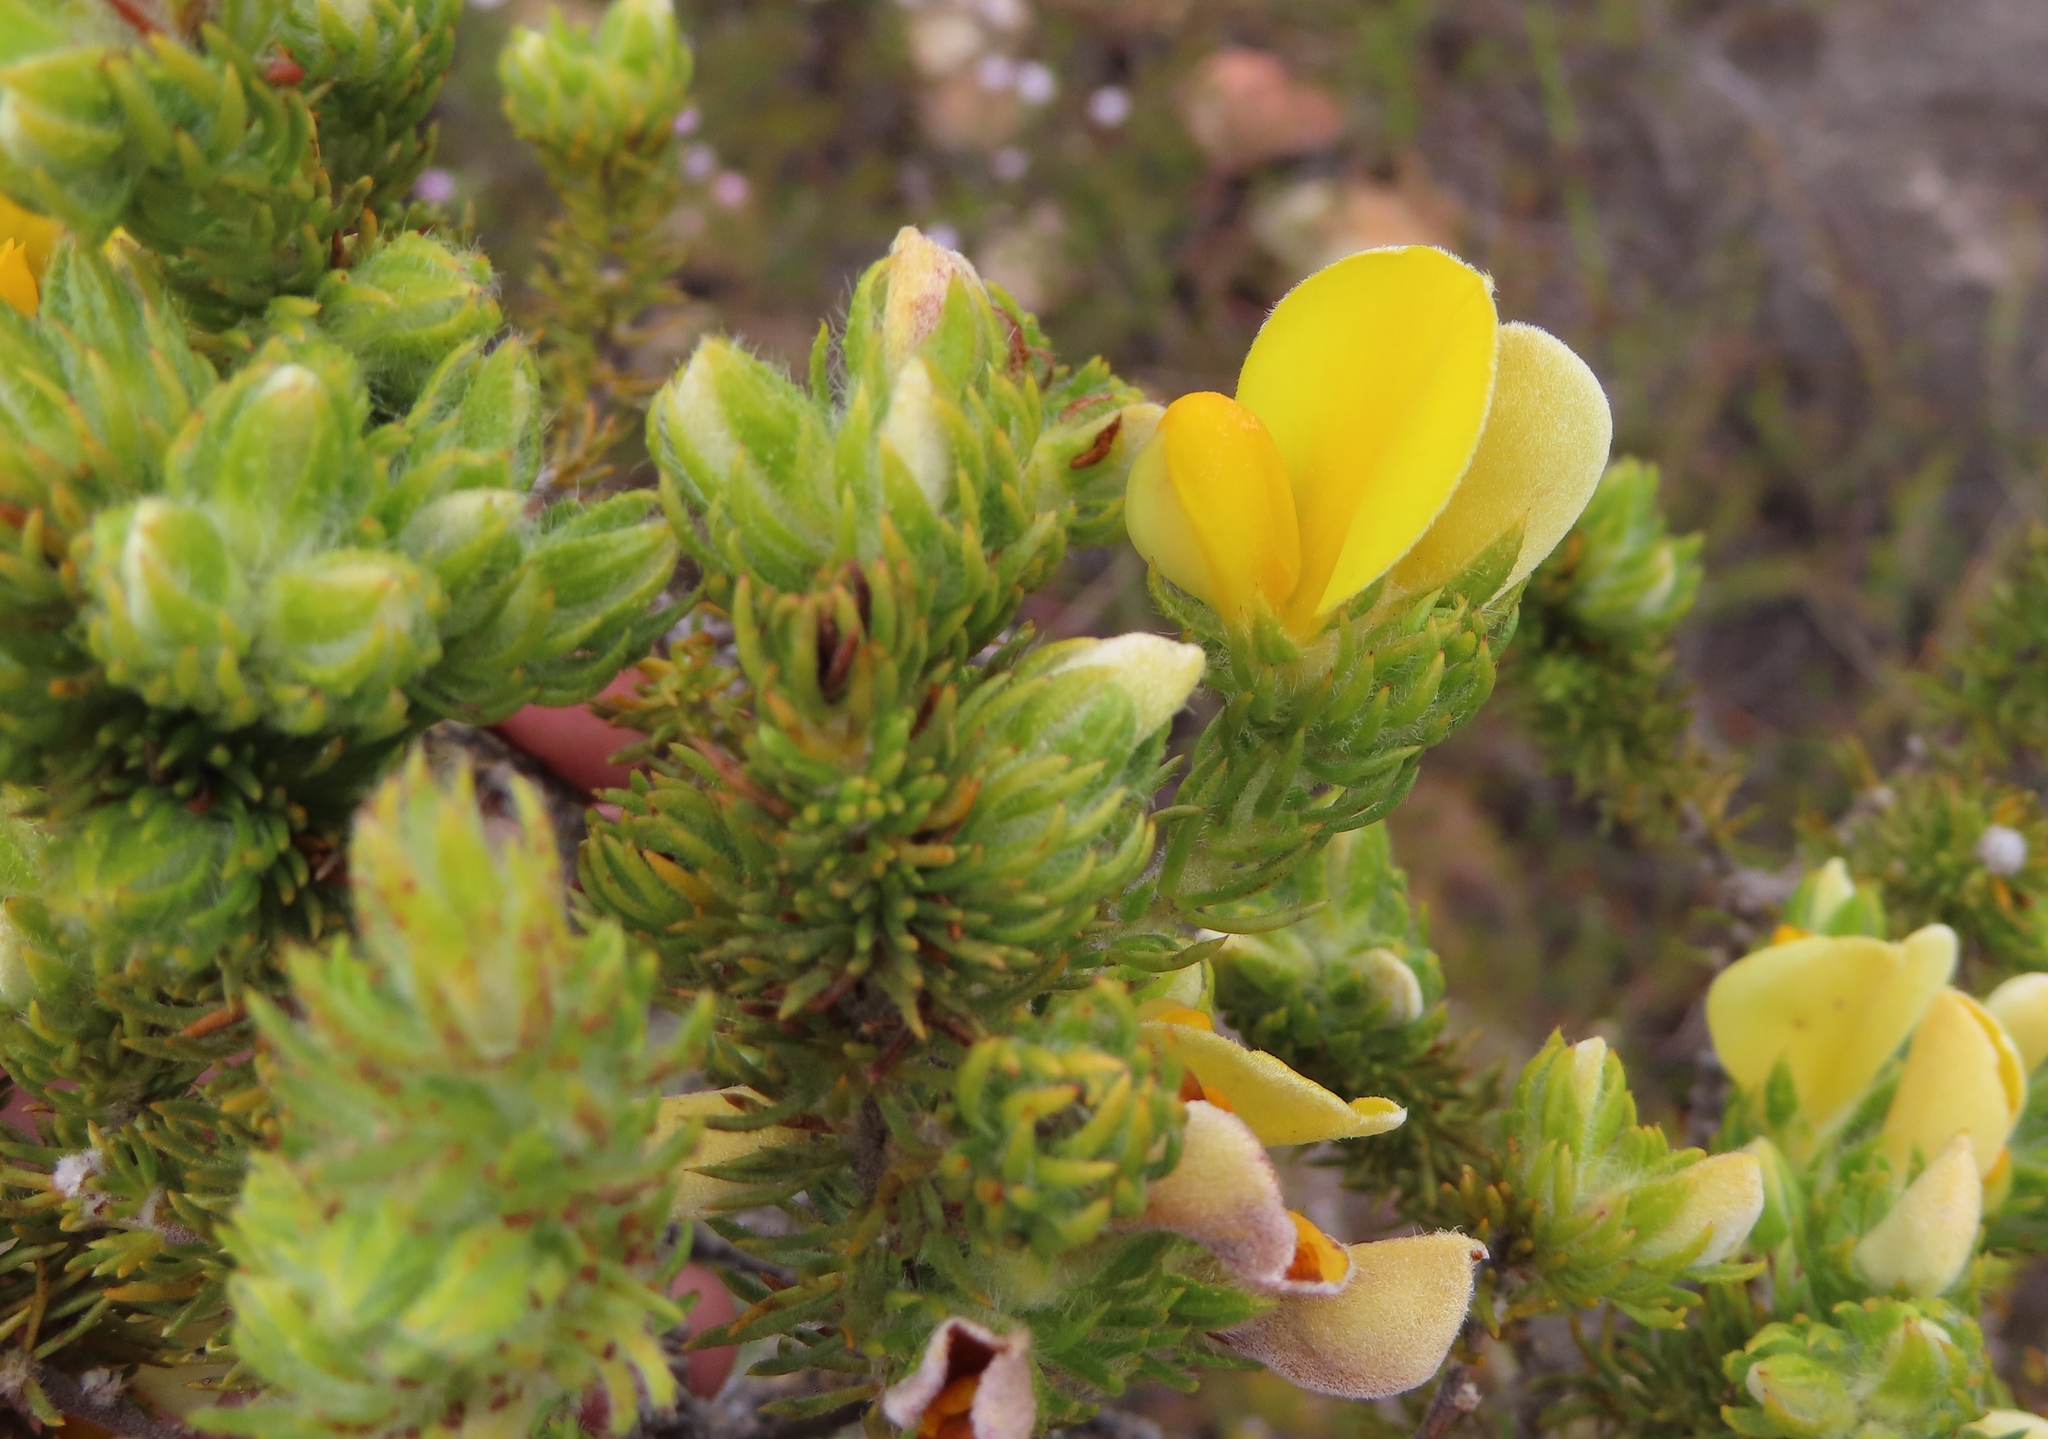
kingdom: Plantae
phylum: Tracheophyta
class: Magnoliopsida
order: Fabales
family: Fabaceae
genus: Aspalathus
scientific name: Aspalathus ciliaris
